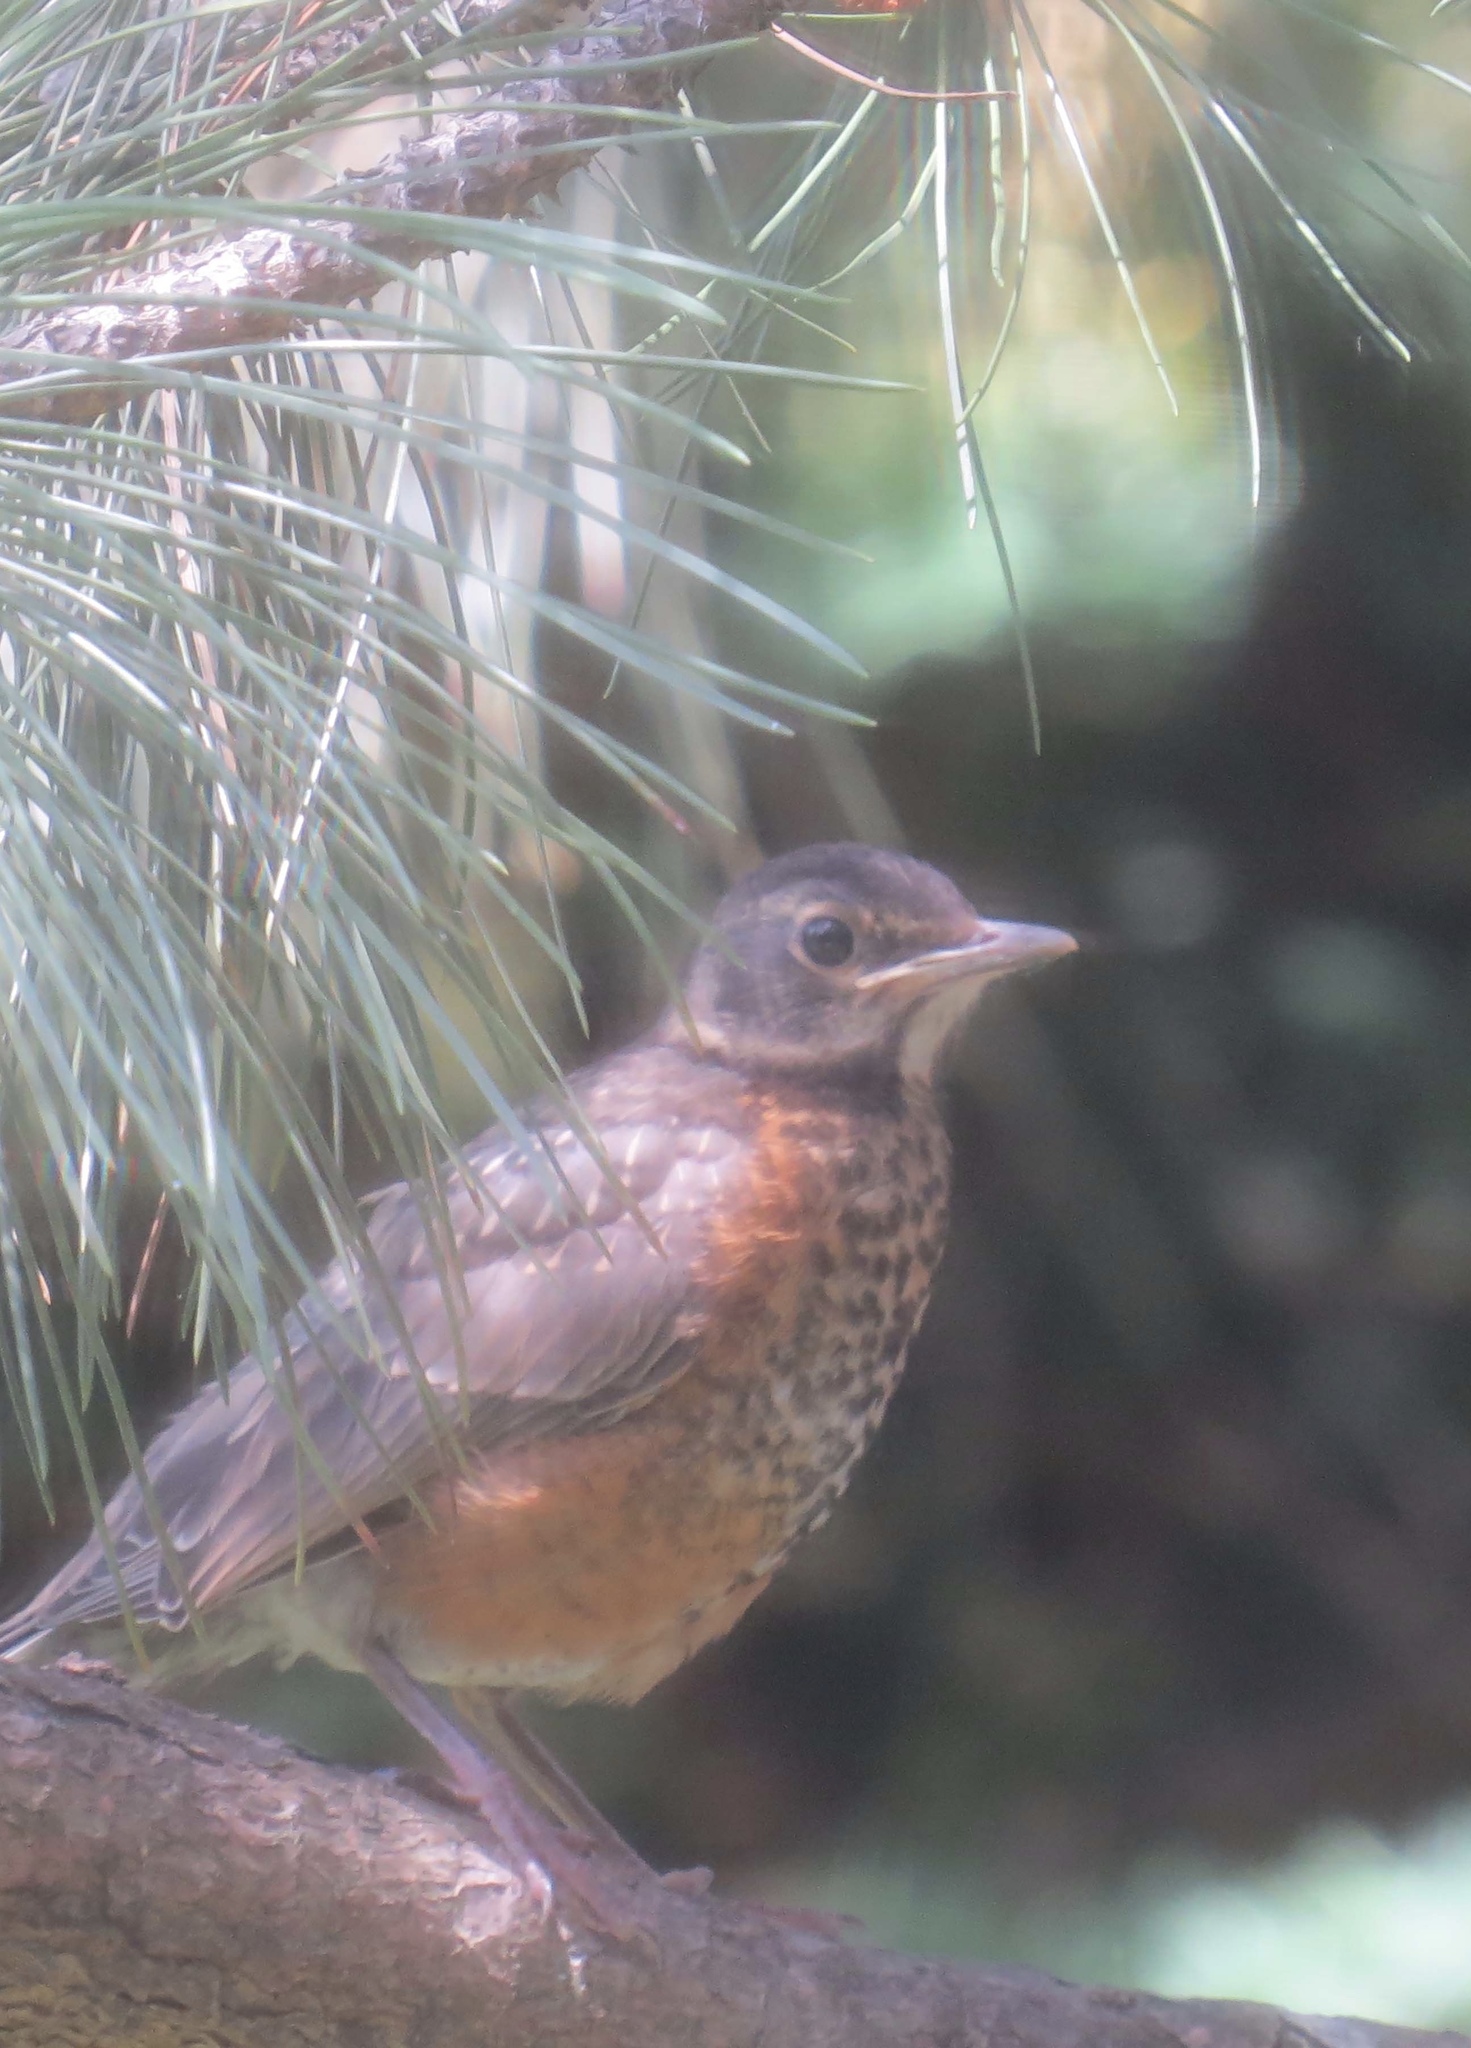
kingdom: Animalia
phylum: Chordata
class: Aves
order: Passeriformes
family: Turdidae
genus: Turdus
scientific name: Turdus migratorius
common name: American robin
